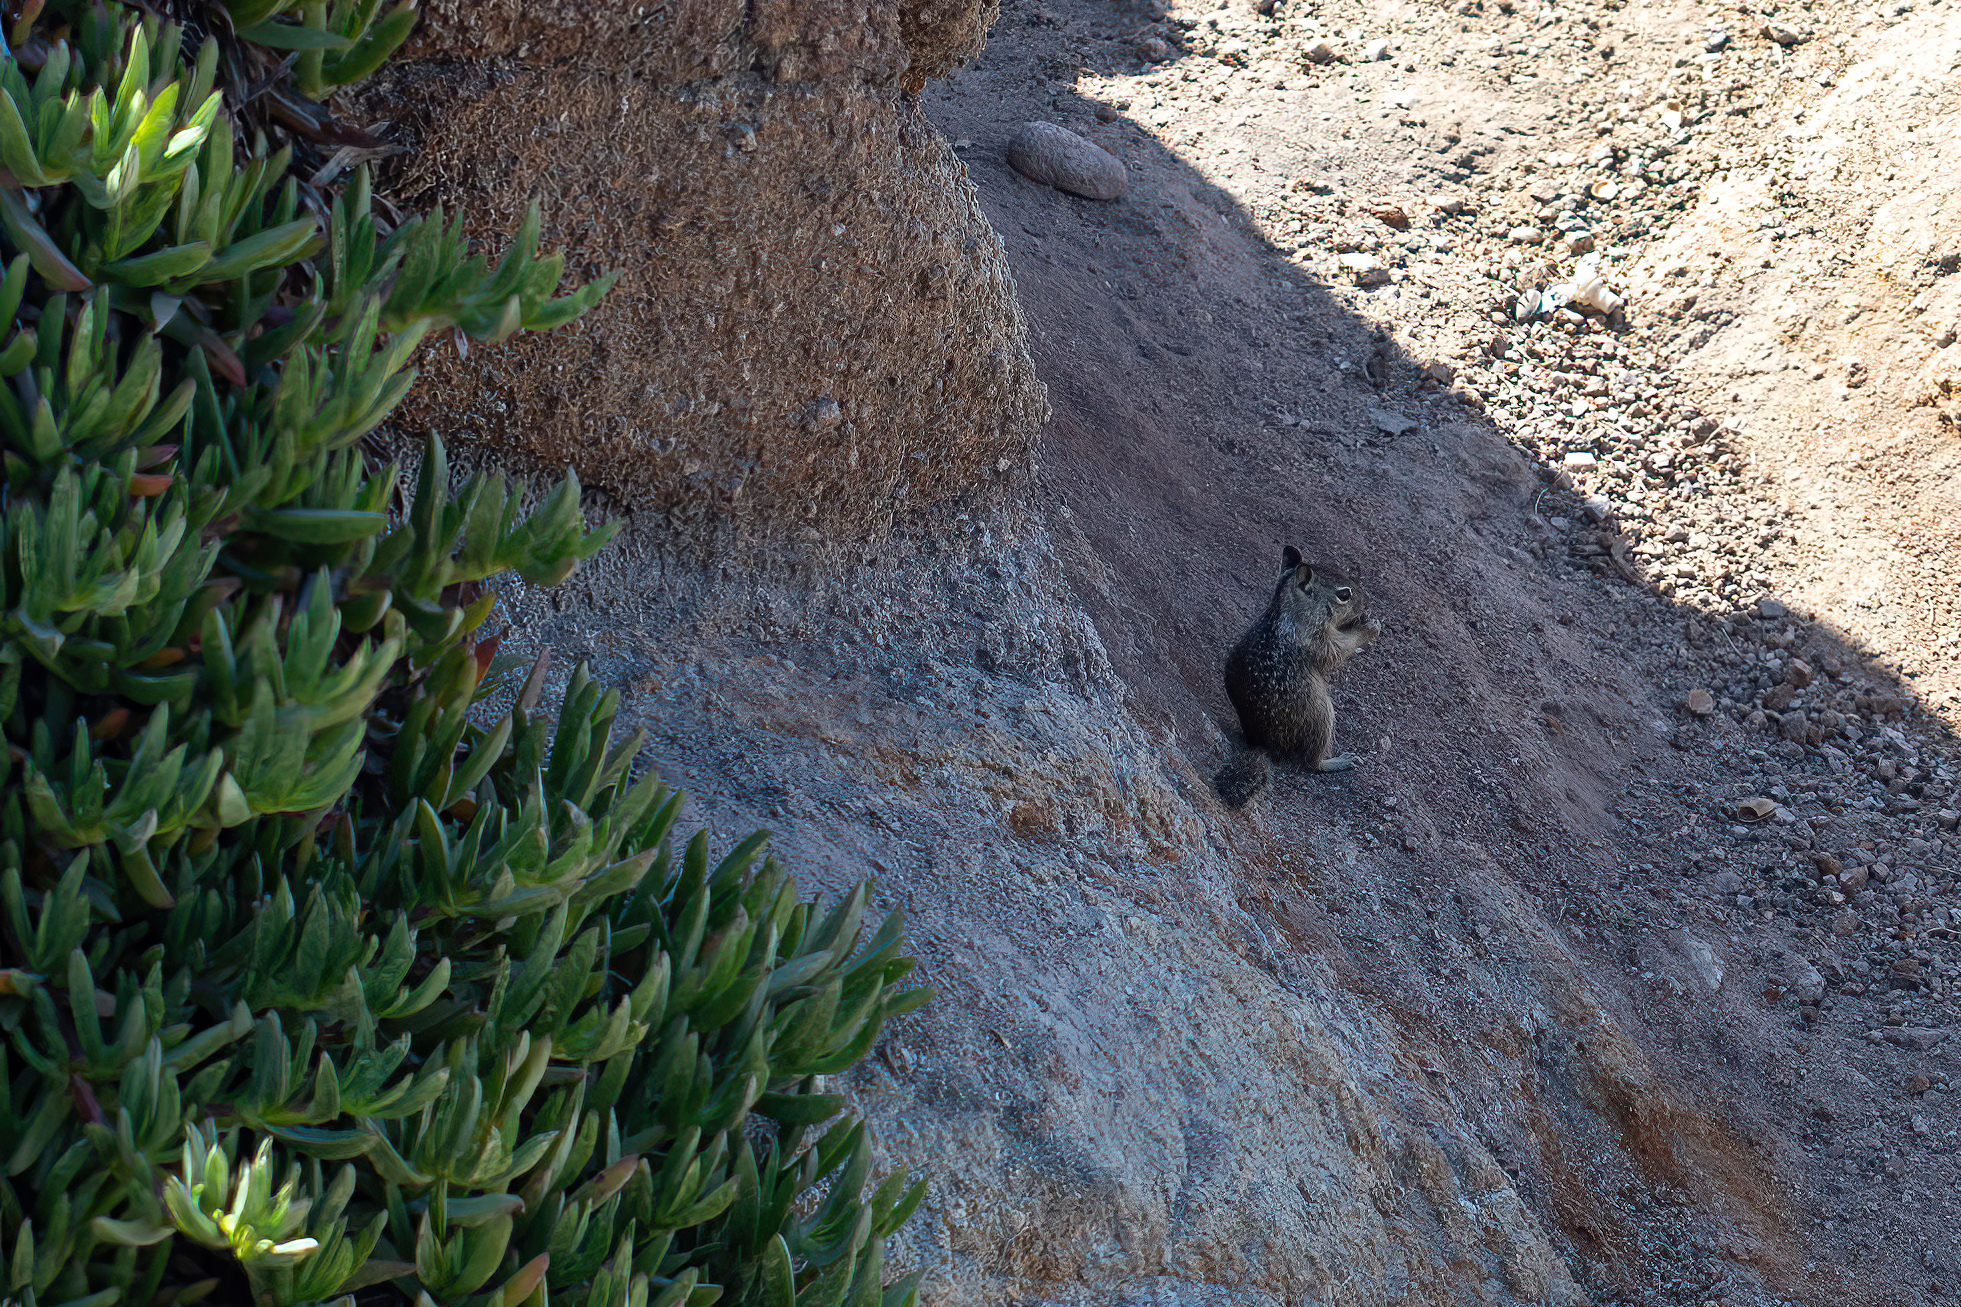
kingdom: Animalia
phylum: Chordata
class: Mammalia
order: Rodentia
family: Sciuridae
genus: Otospermophilus
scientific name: Otospermophilus beecheyi
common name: California ground squirrel
